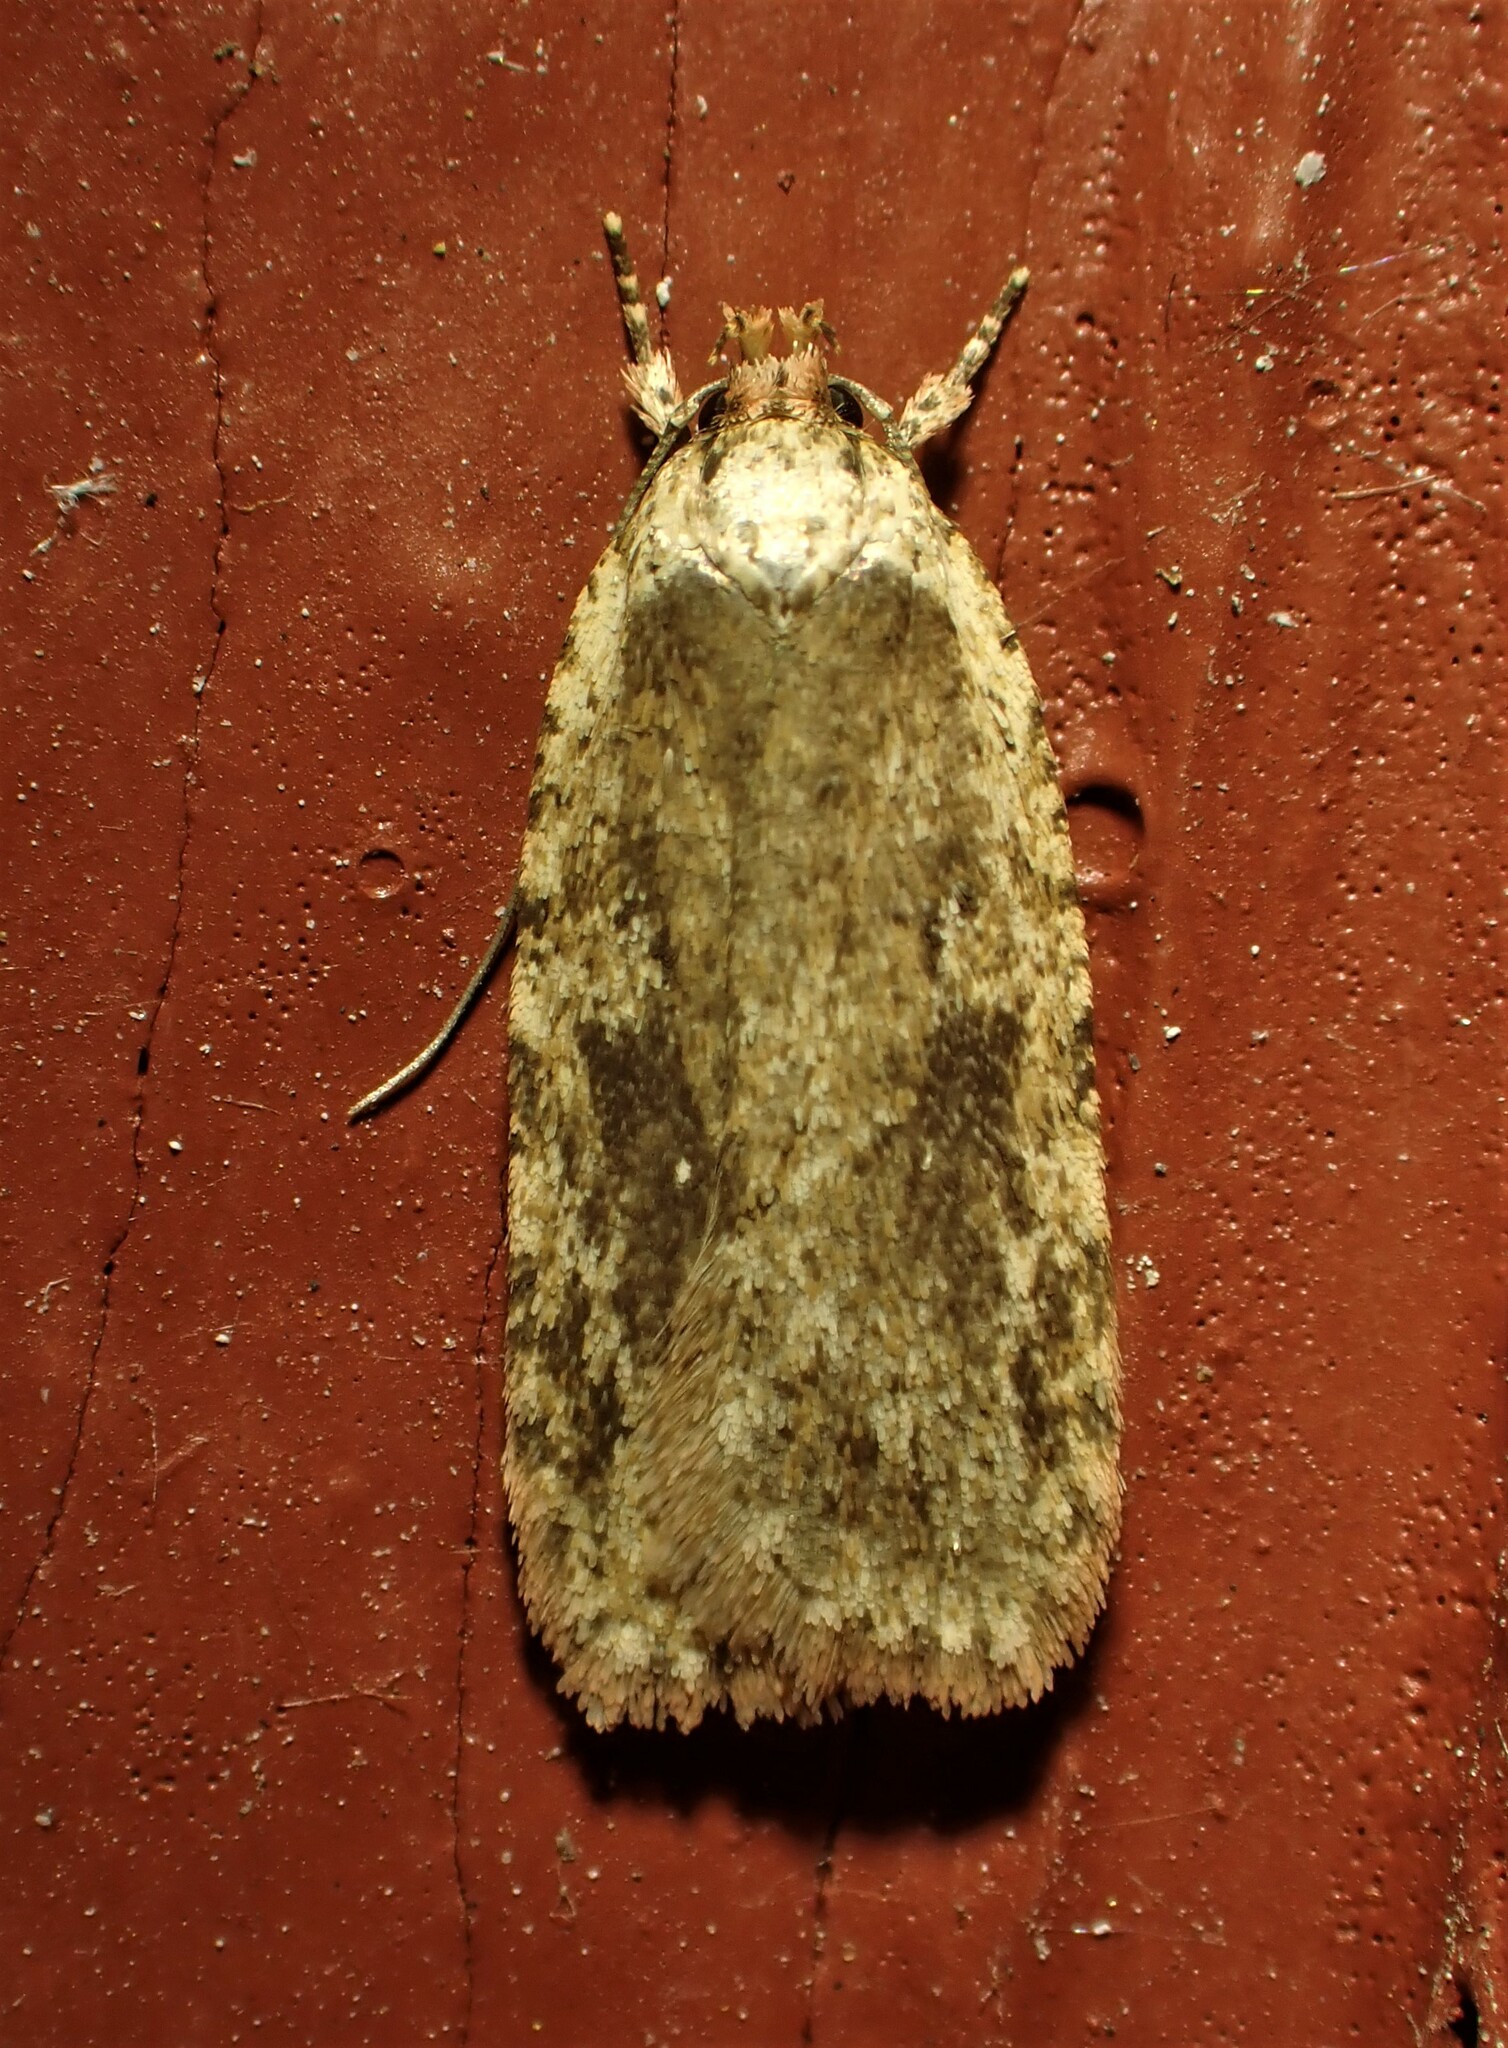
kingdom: Animalia
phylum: Arthropoda
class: Insecta
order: Lepidoptera
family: Depressariidae
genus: Agonopterix
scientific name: Agonopterix pulvipennella
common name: Goldenrod leafffolder
